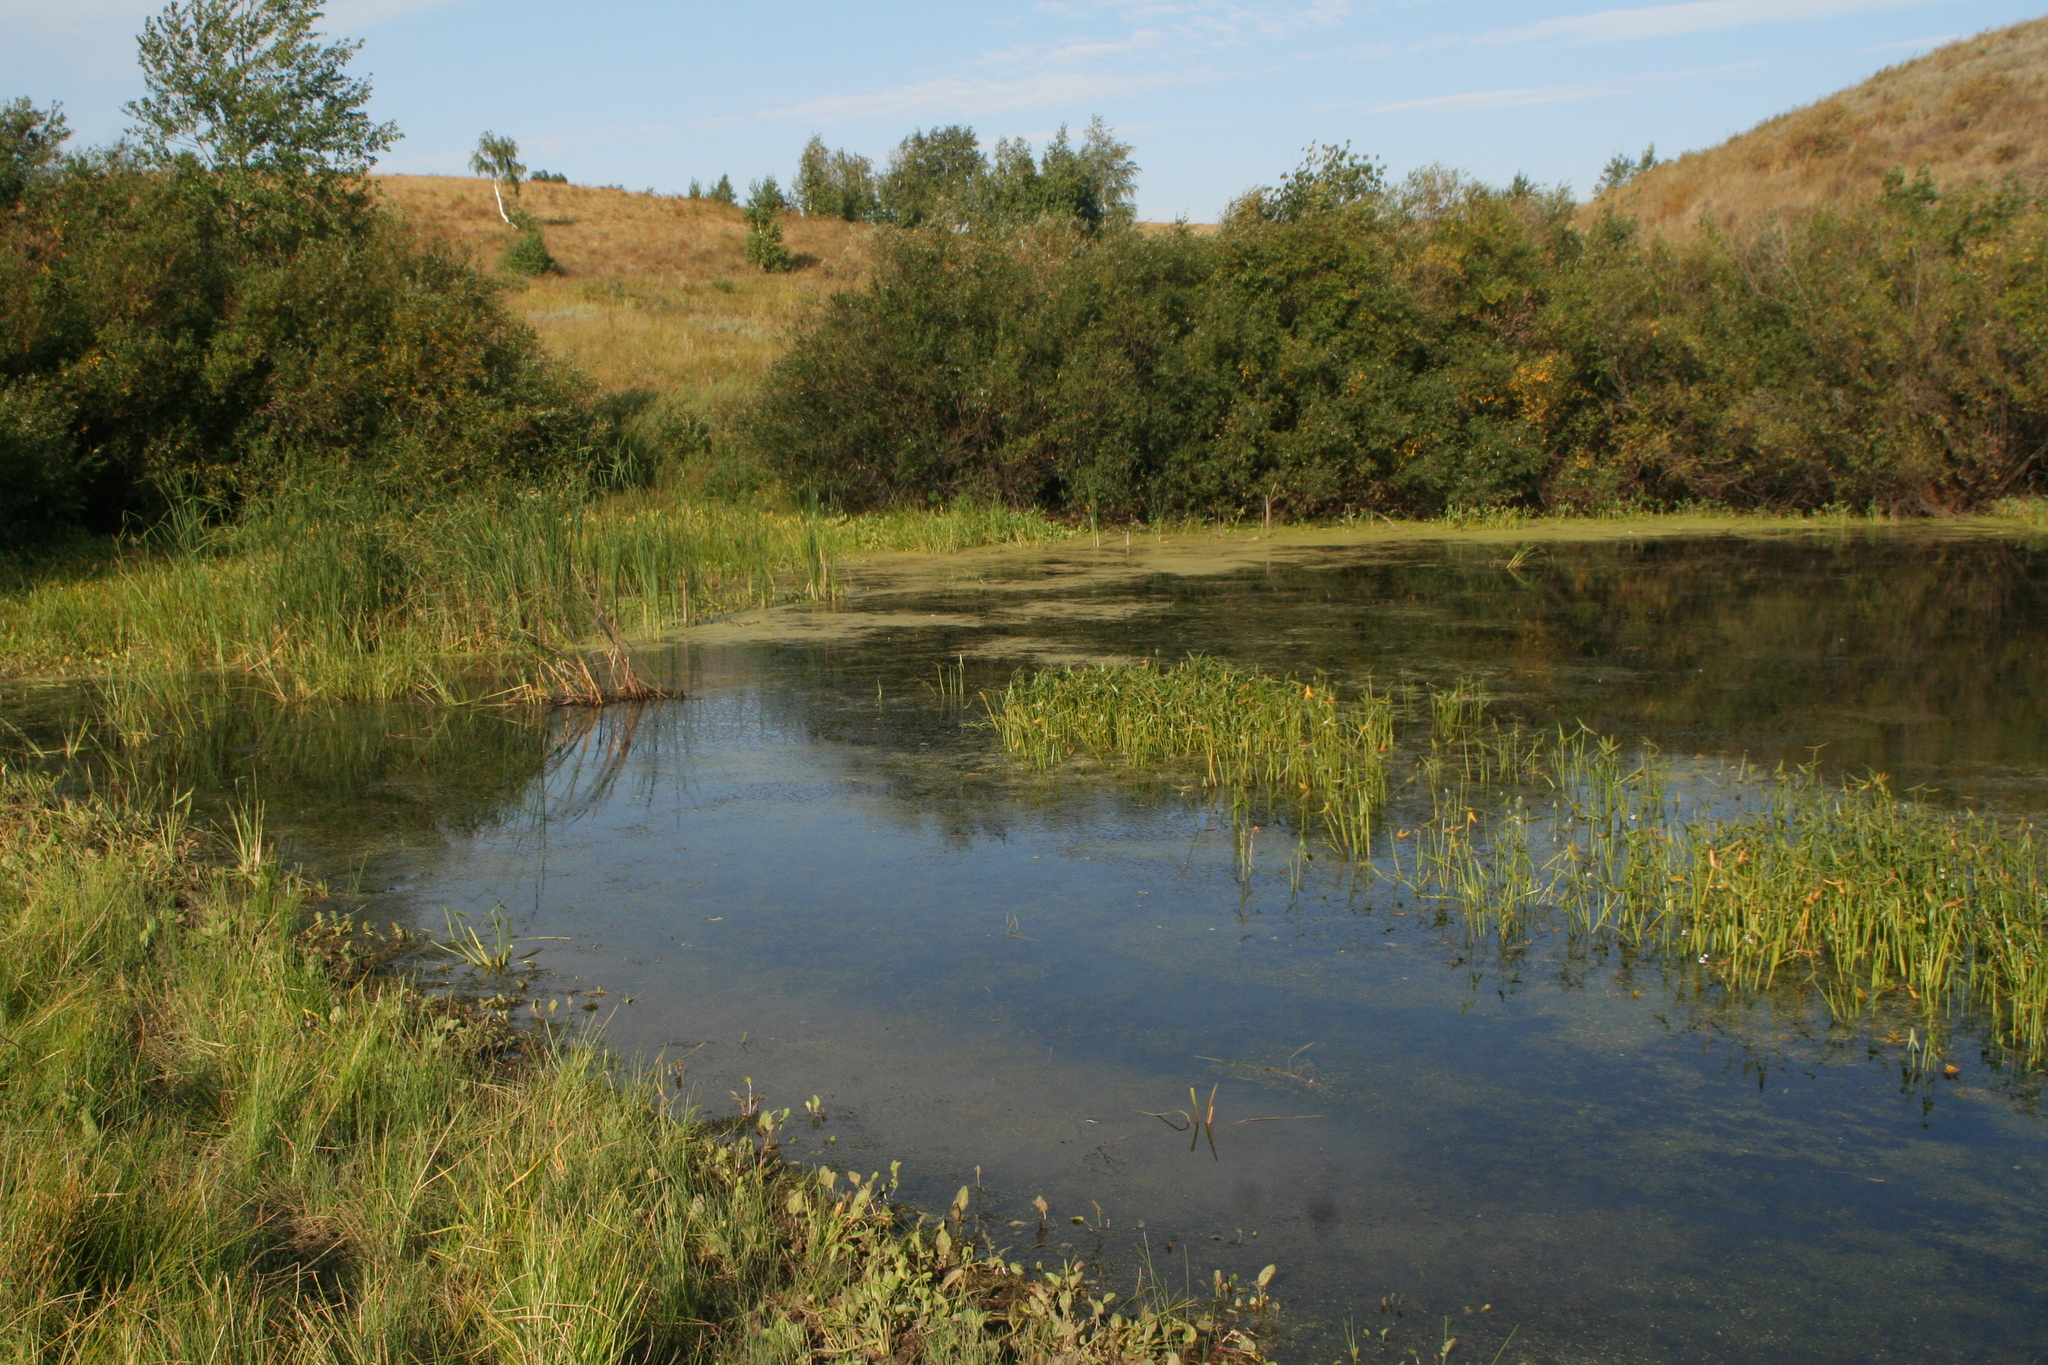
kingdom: Plantae
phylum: Tracheophyta
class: Liliopsida
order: Alismatales
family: Alismataceae
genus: Sagittaria
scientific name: Sagittaria sagittifolia
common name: Arrowhead
